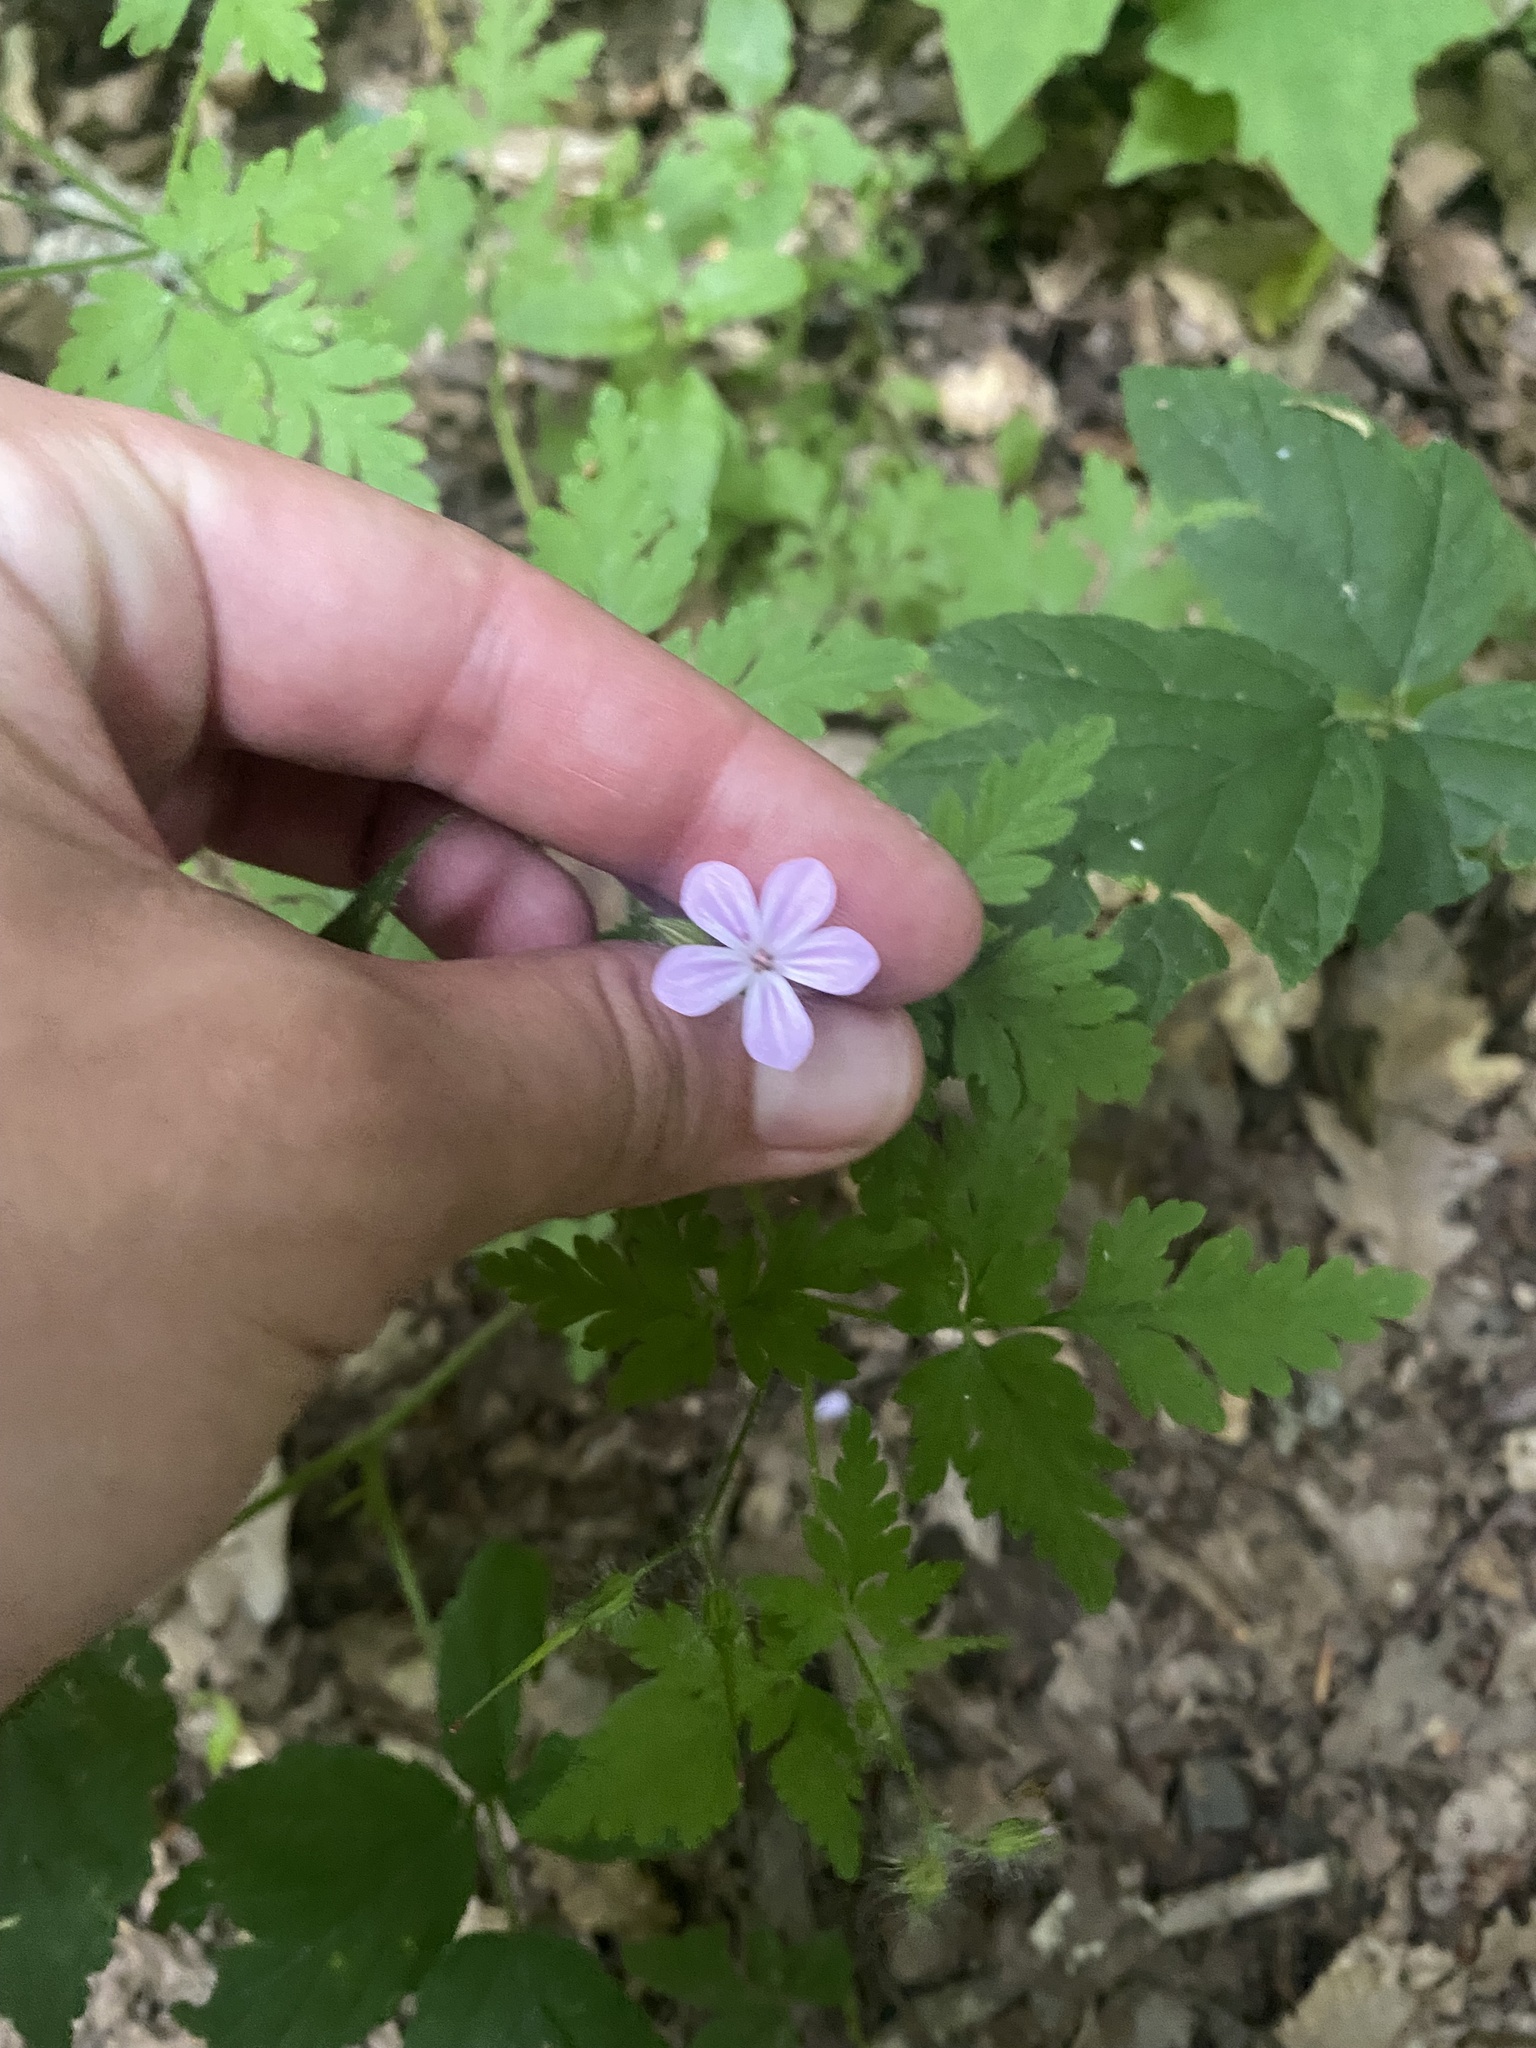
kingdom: Plantae
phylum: Tracheophyta
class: Magnoliopsida
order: Geraniales
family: Geraniaceae
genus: Geranium
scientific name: Geranium robertianum
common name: Herb-robert
